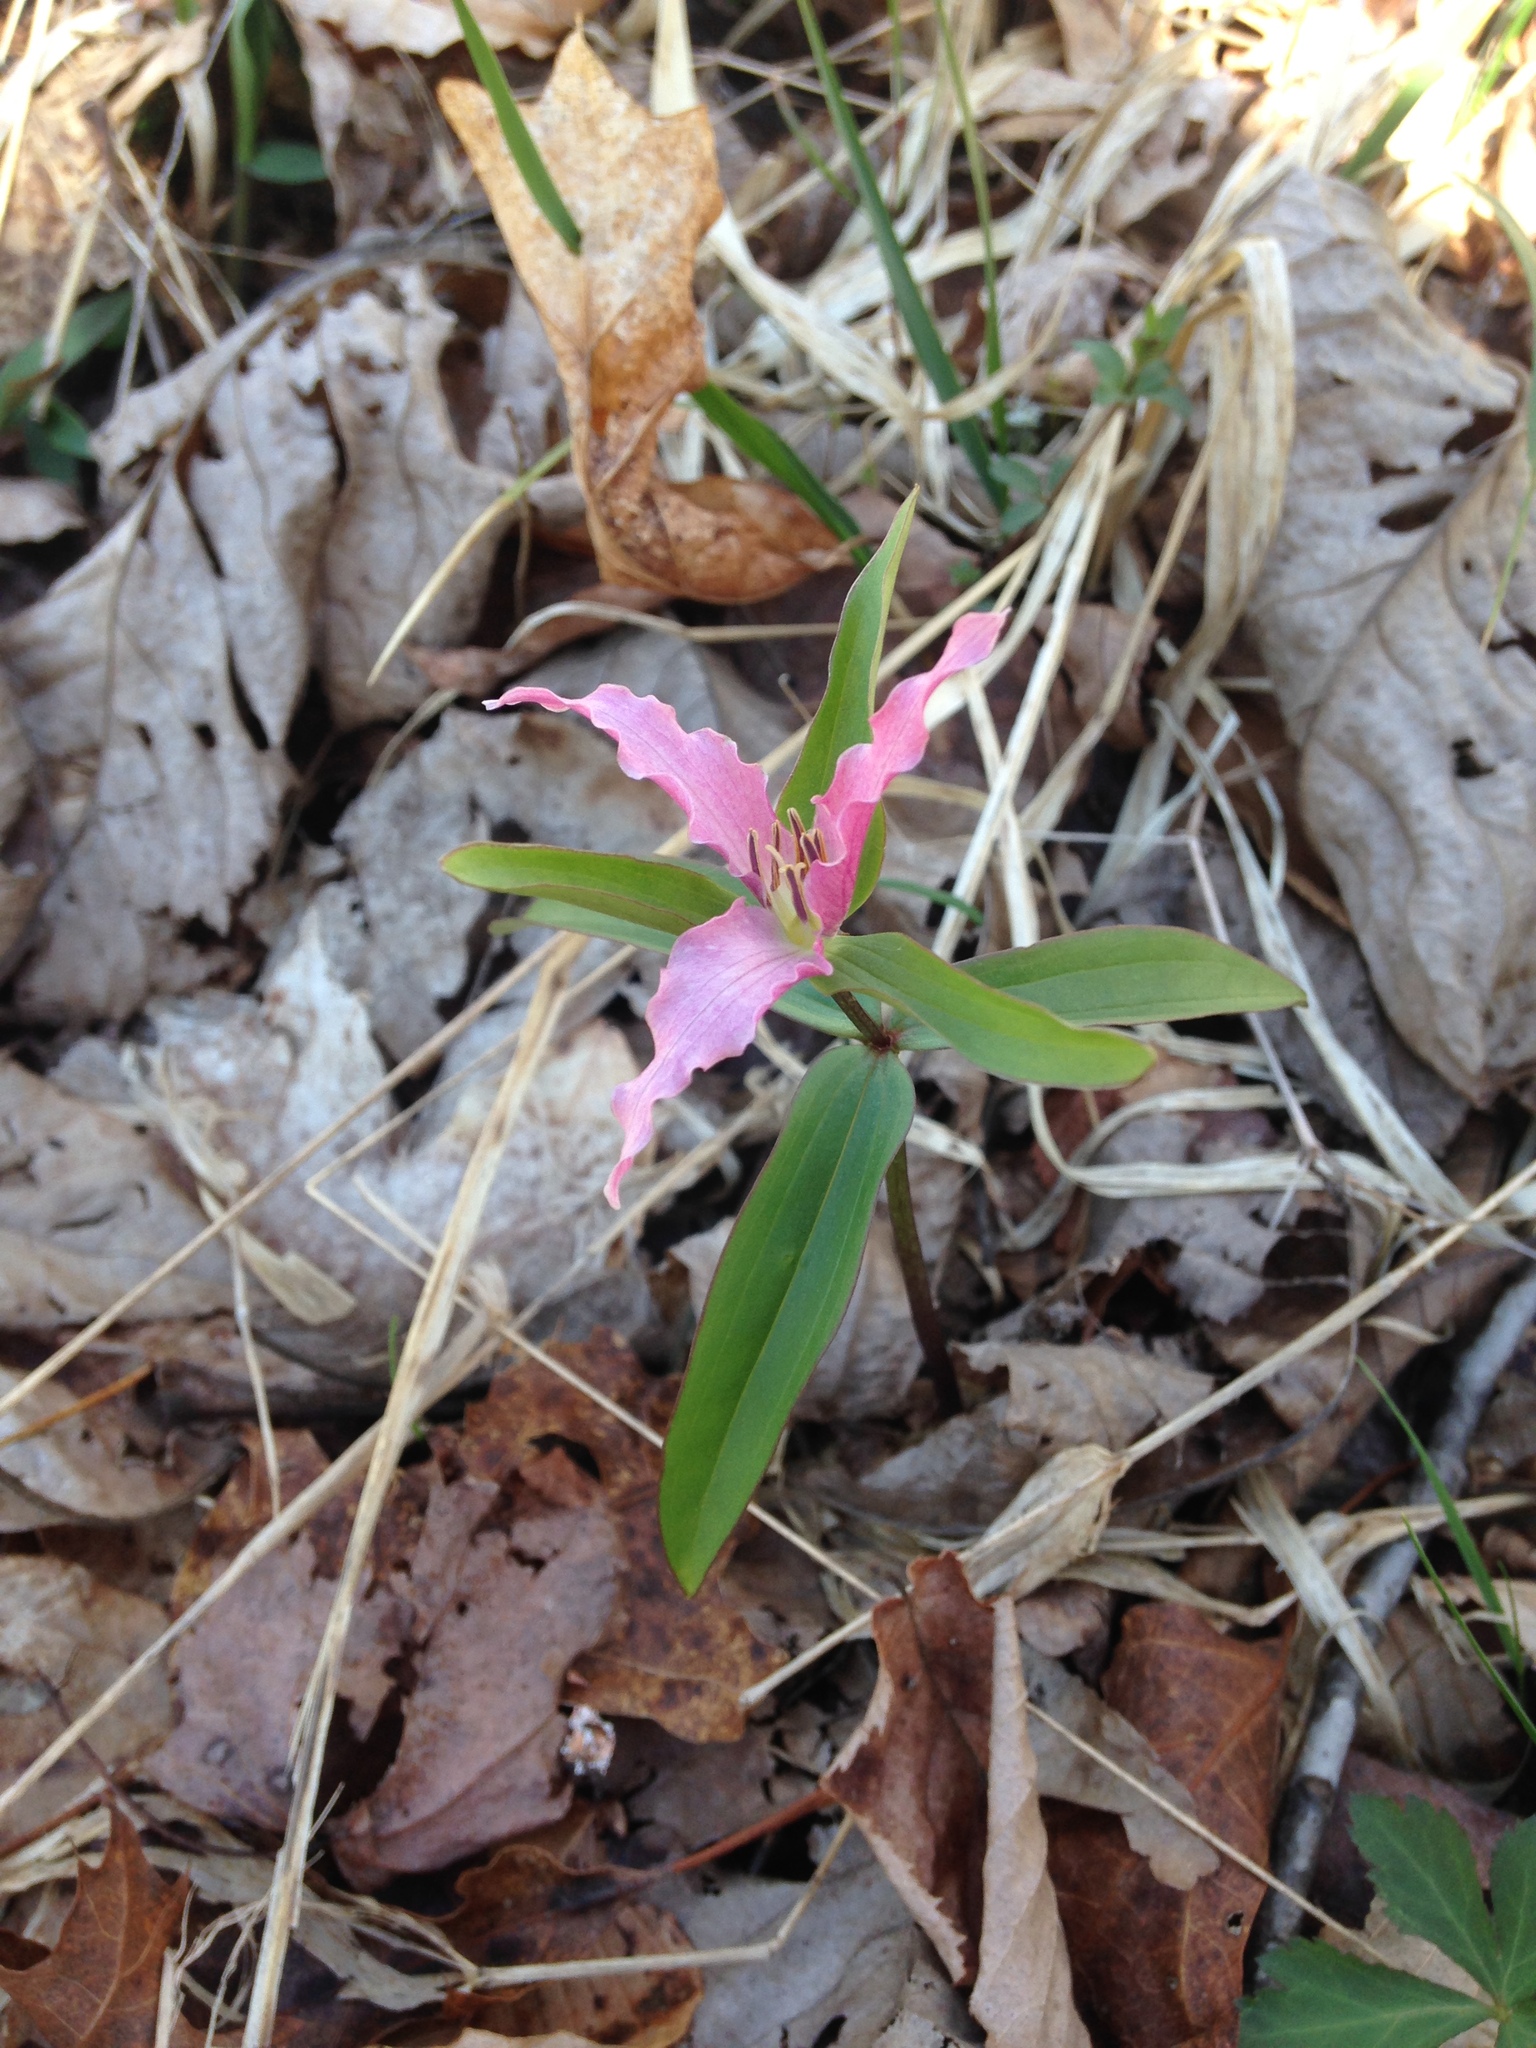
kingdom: Plantae
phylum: Tracheophyta
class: Liliopsida
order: Liliales
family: Melanthiaceae
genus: Trillium
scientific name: Trillium pusillum
